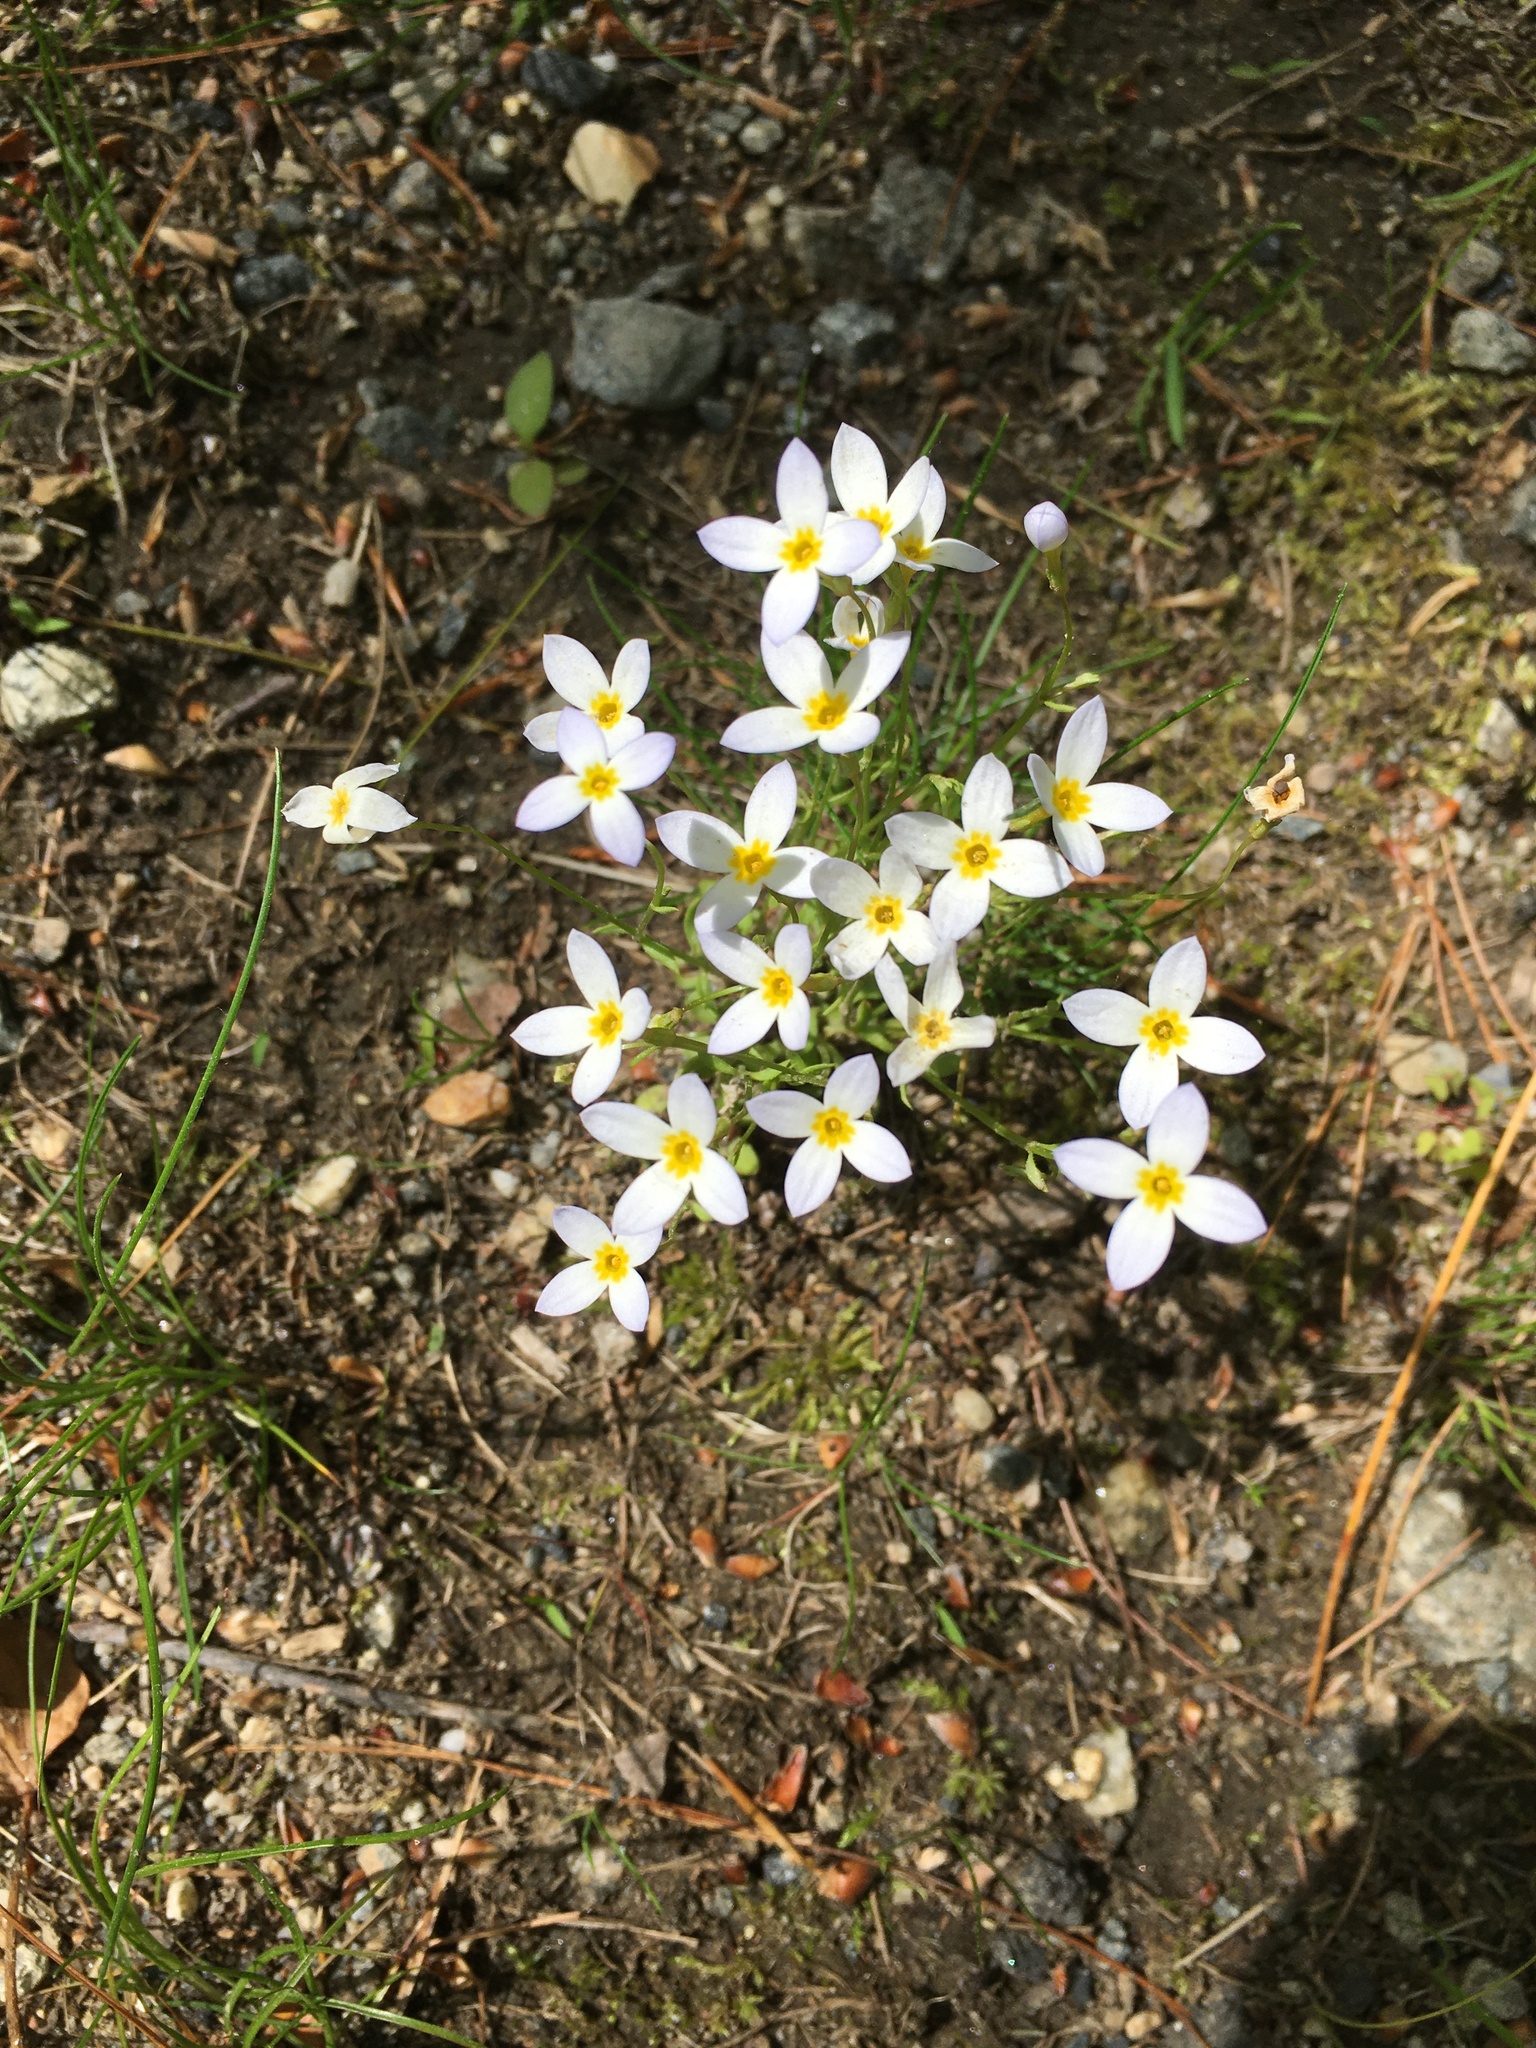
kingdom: Plantae
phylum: Tracheophyta
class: Magnoliopsida
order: Gentianales
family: Rubiaceae
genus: Houstonia
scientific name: Houstonia caerulea
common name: Bluets
